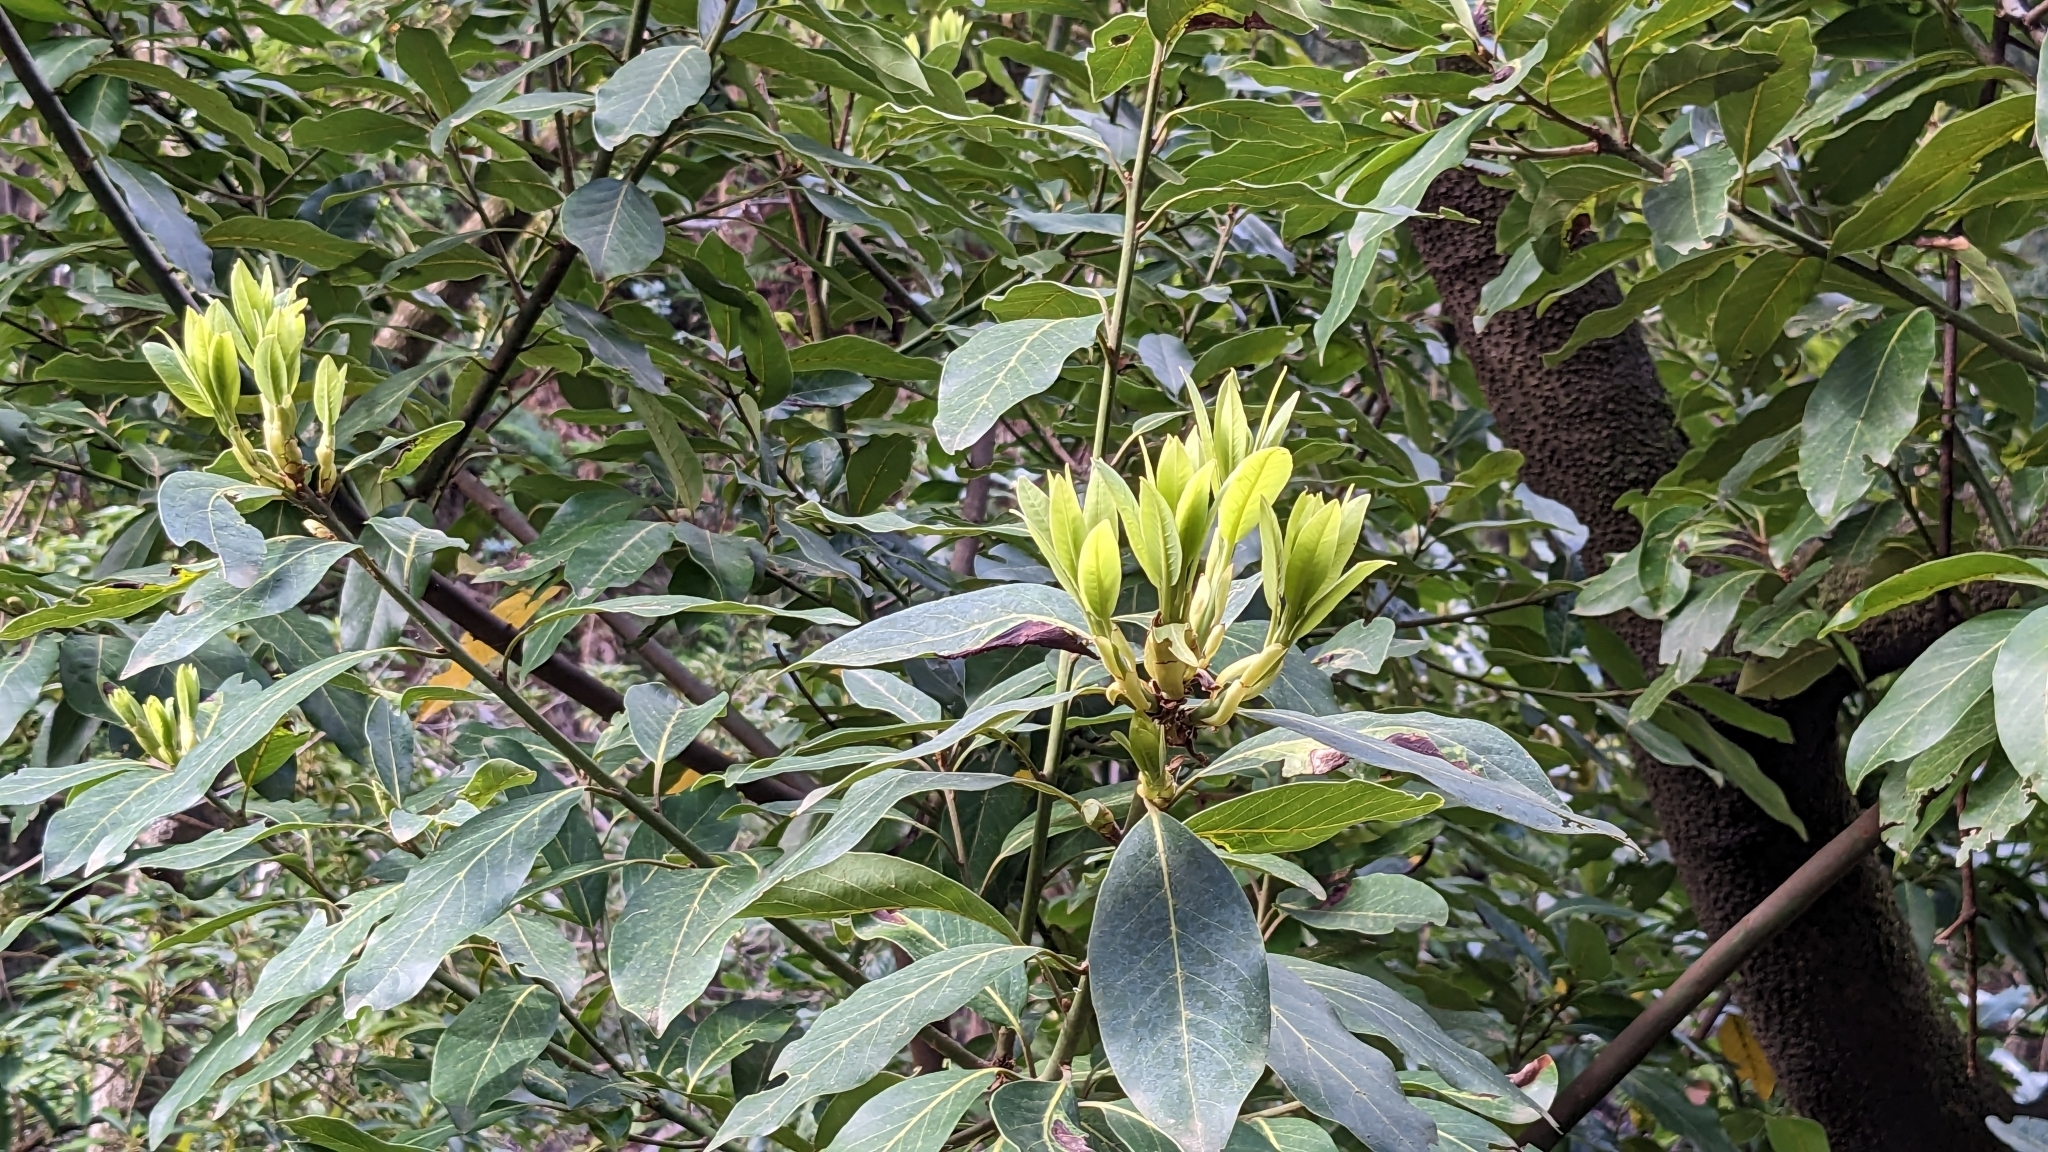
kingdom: Plantae
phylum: Tracheophyta
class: Magnoliopsida
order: Laurales
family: Lauraceae
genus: Laurus
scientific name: Laurus novocanariensis
